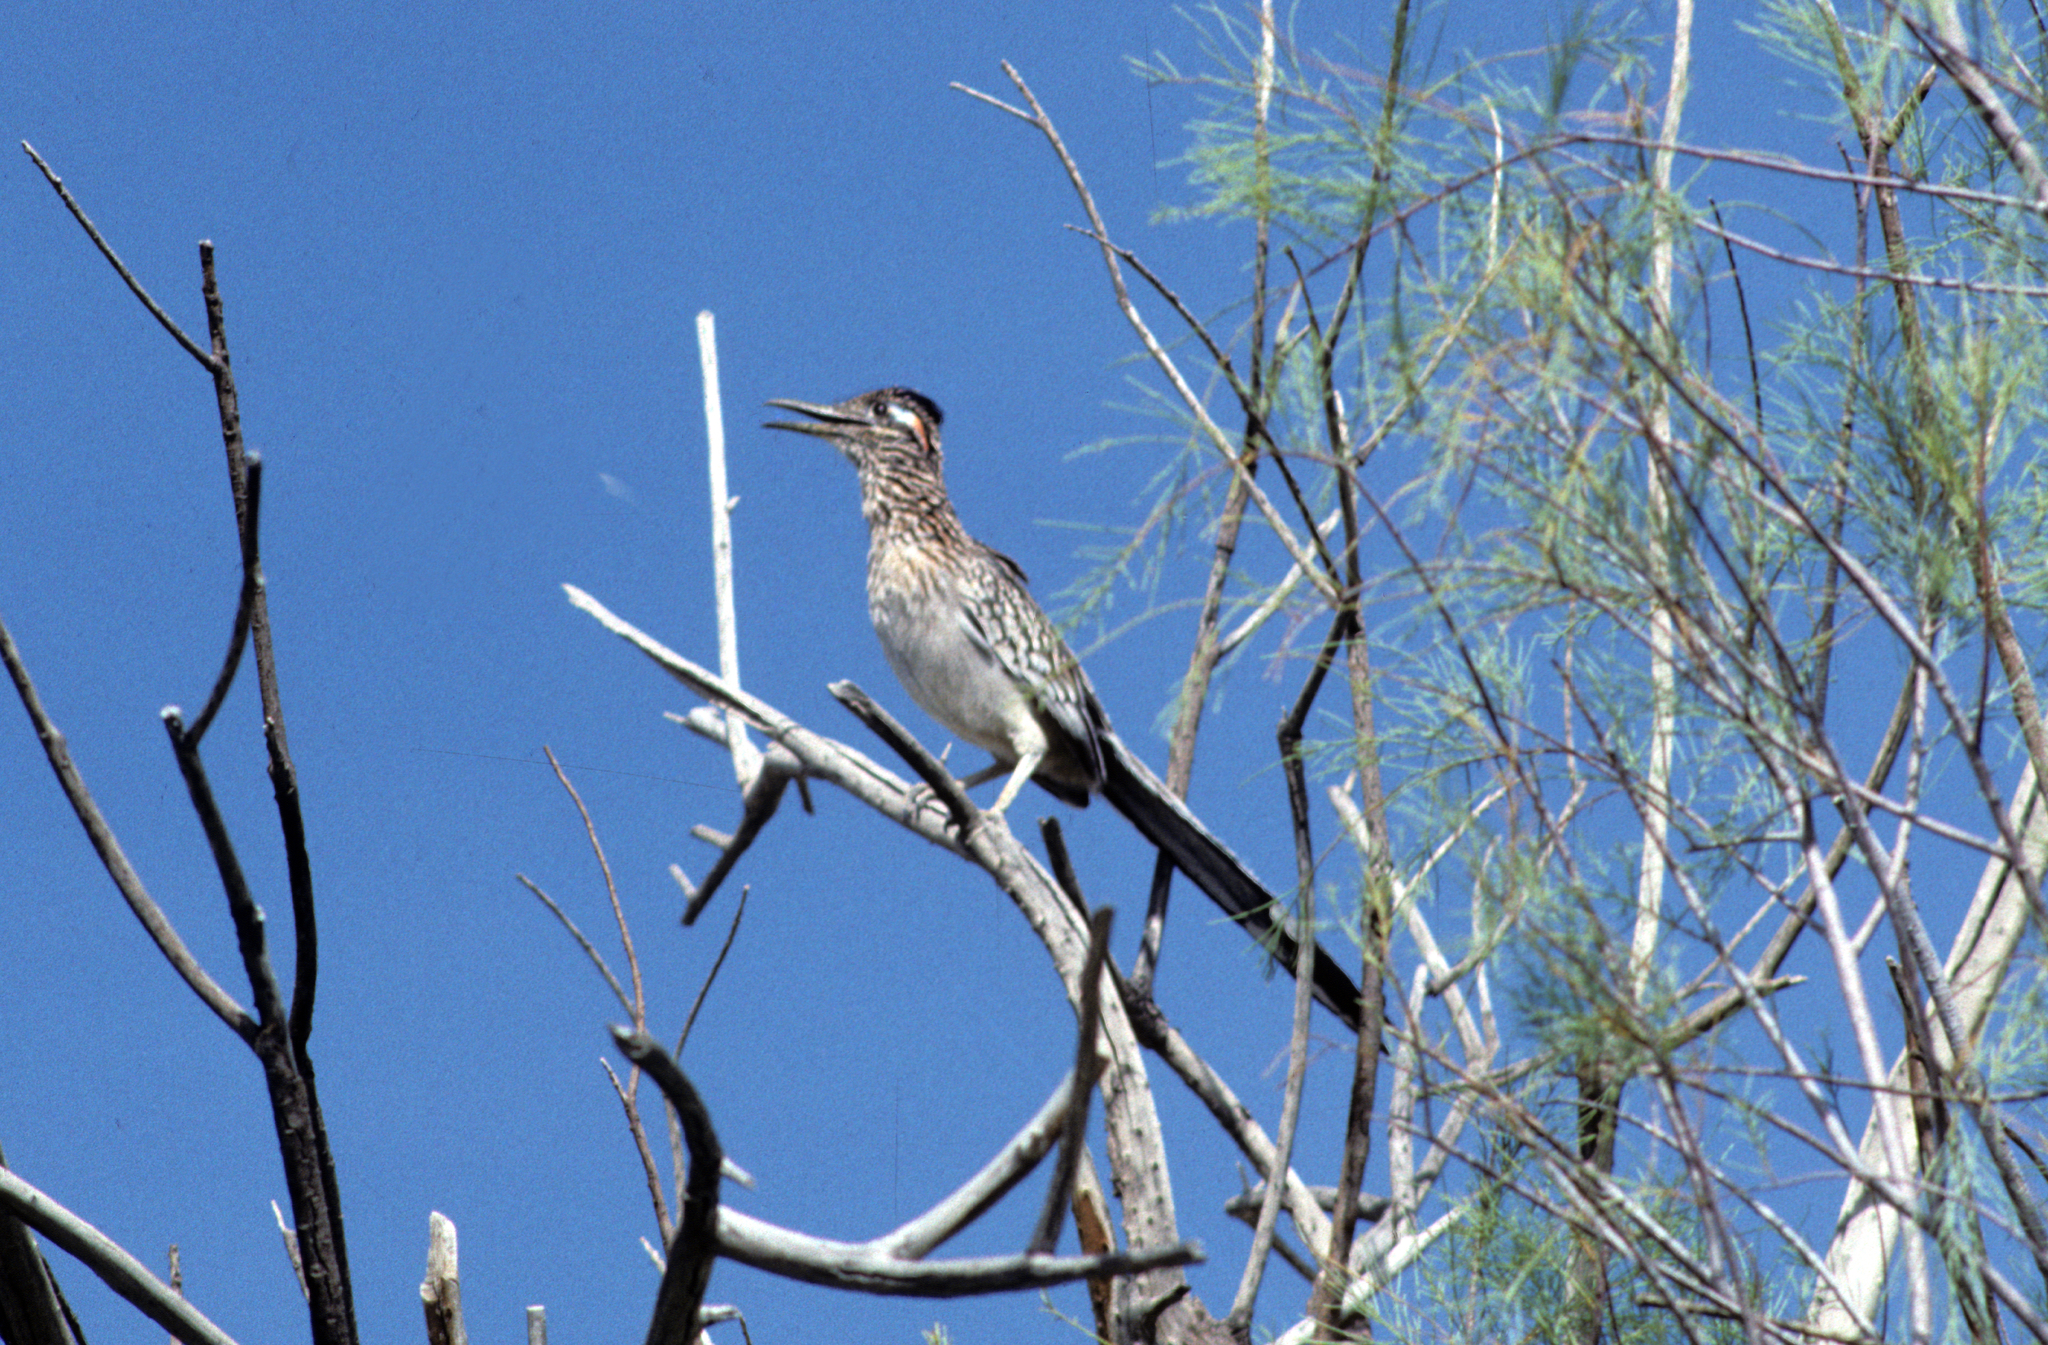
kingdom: Animalia
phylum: Chordata
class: Aves
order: Cuculiformes
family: Cuculidae
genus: Geococcyx
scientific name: Geococcyx californianus
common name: Greater roadrunner
